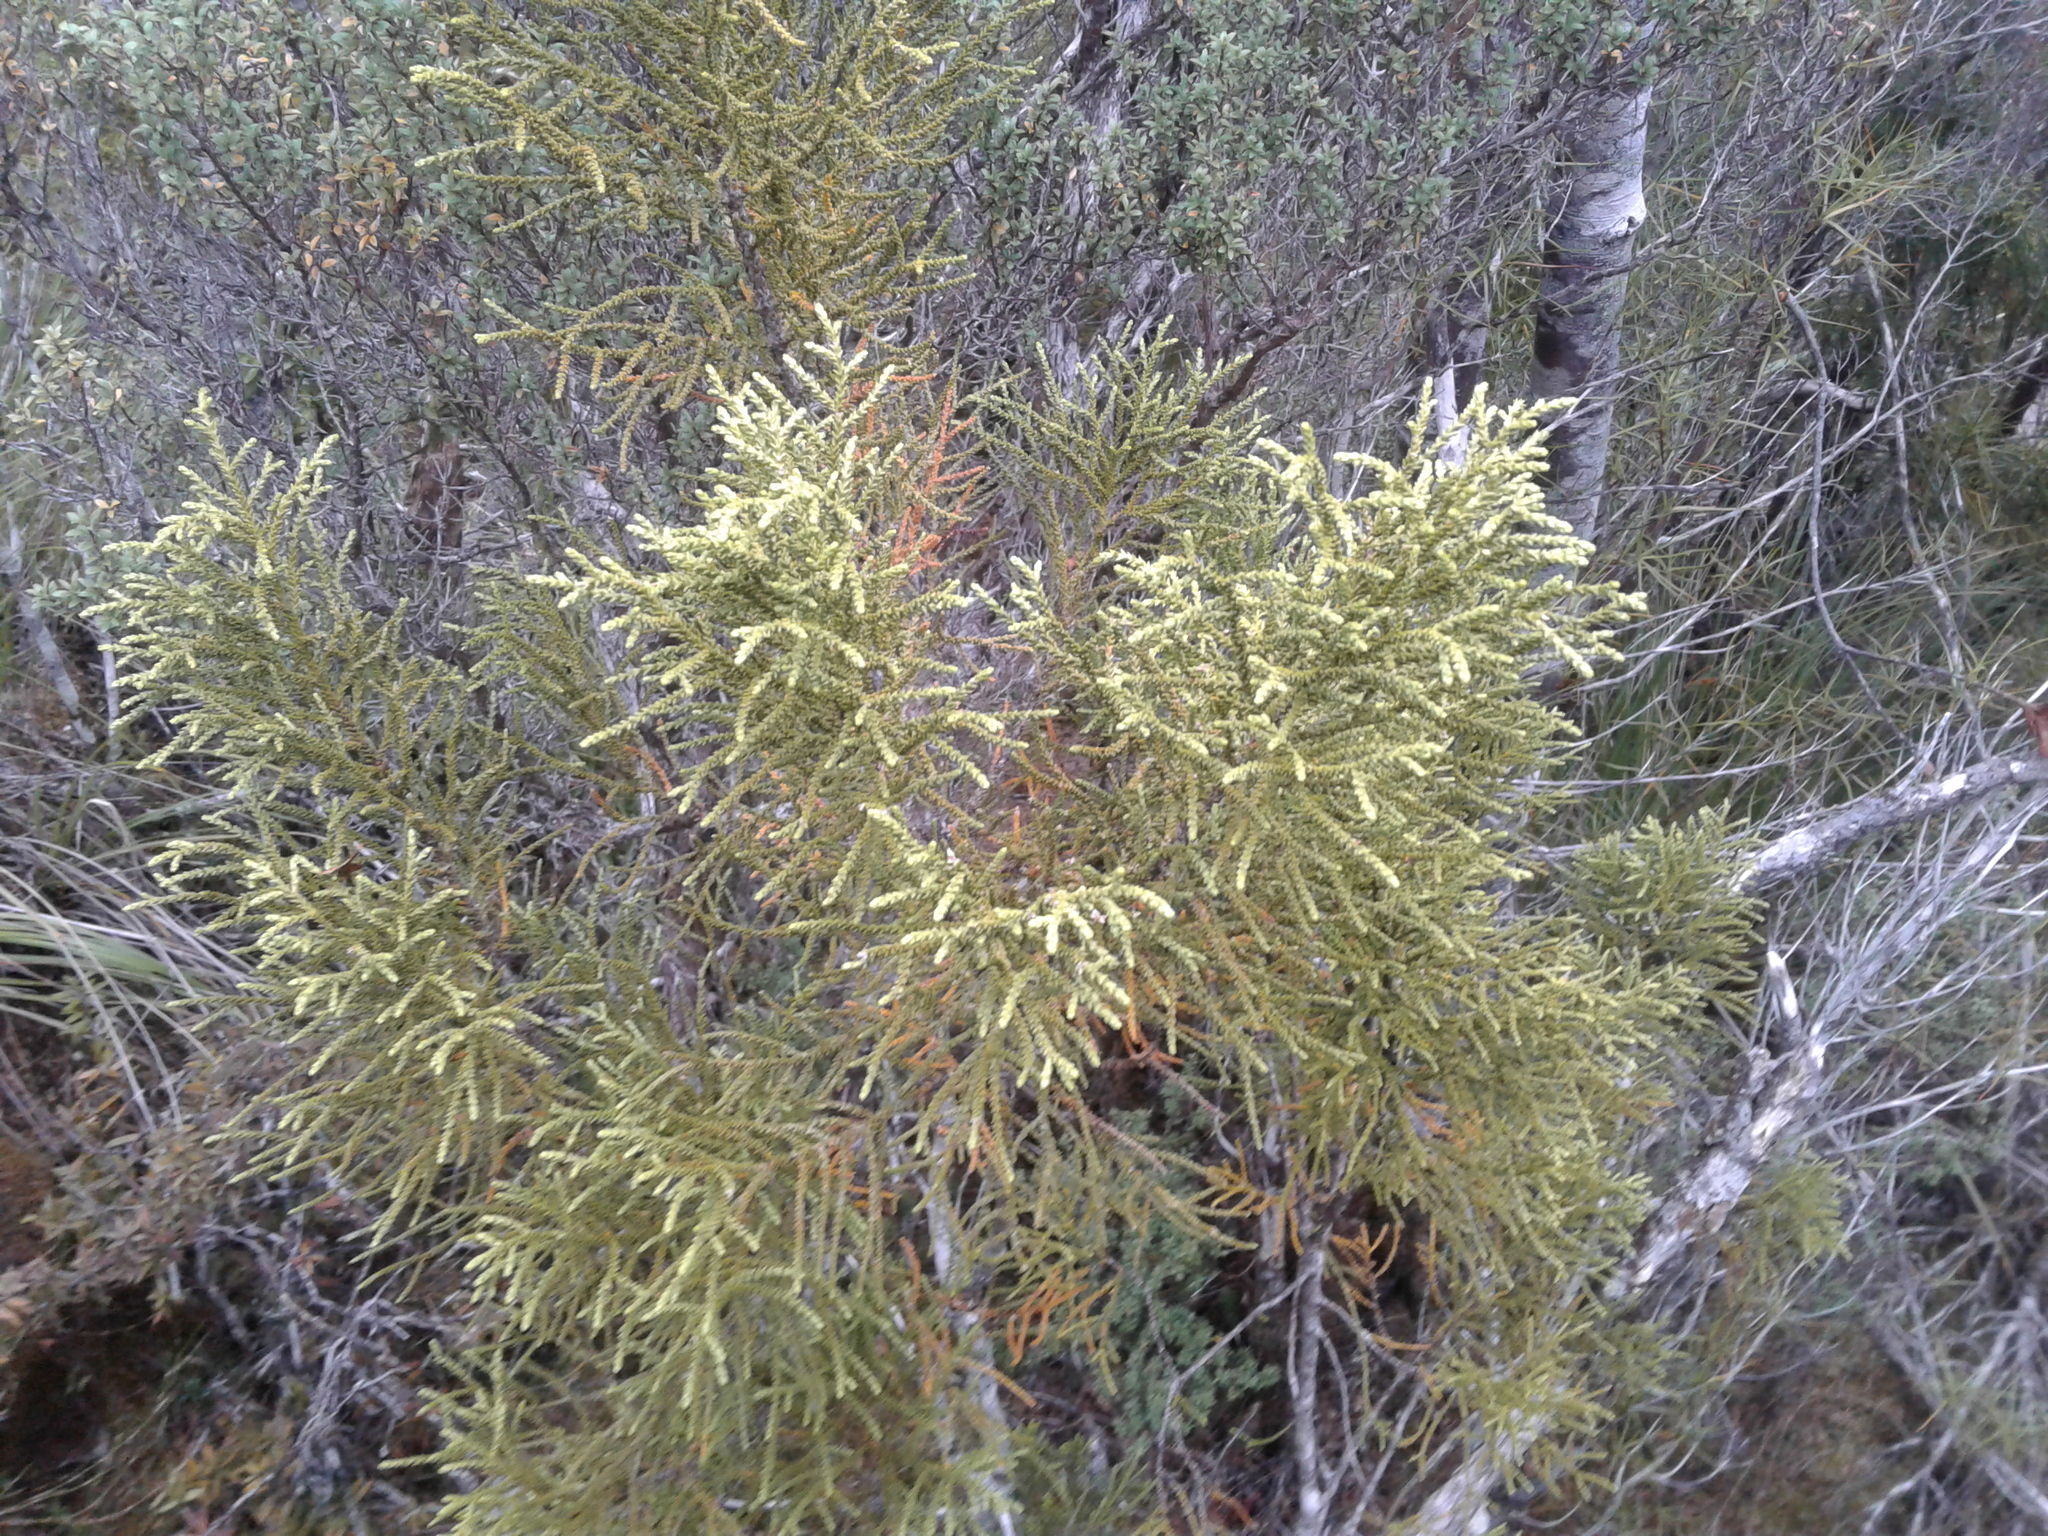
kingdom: Plantae
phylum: Tracheophyta
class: Pinopsida
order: Pinales
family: Podocarpaceae
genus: Lepidothamnus
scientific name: Lepidothamnus intermedius
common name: Yellow silver pine
